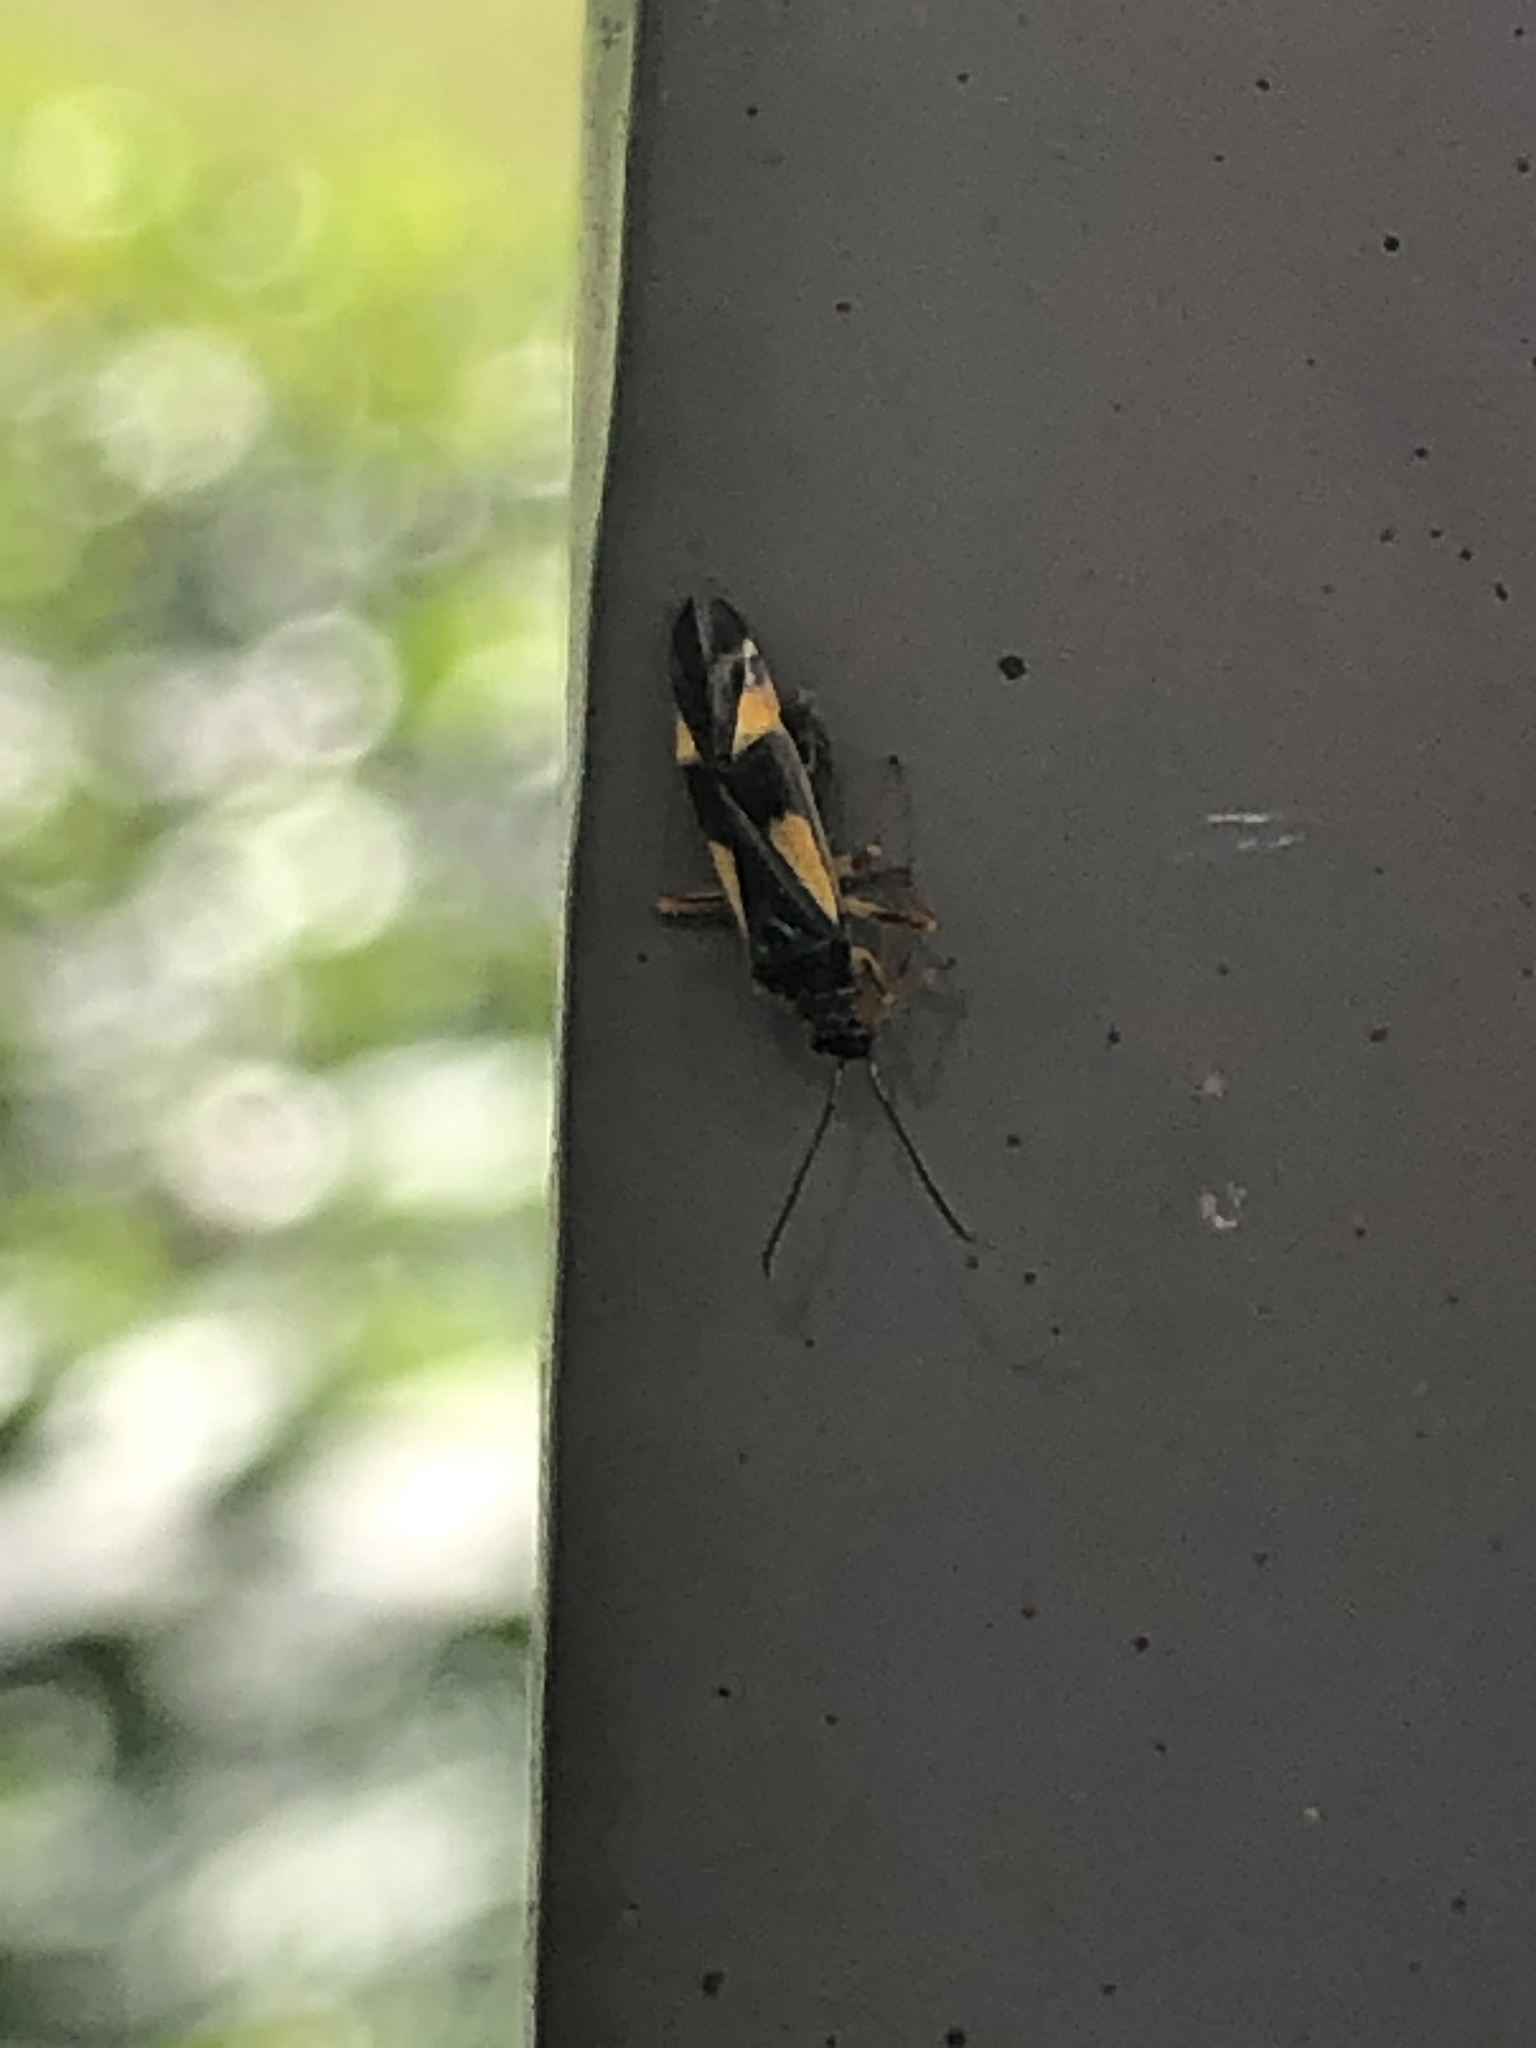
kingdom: Animalia
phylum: Arthropoda
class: Insecta
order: Hemiptera
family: Miridae
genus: Dryophilocoris
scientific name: Dryophilocoris flavoquadrimaculatus
